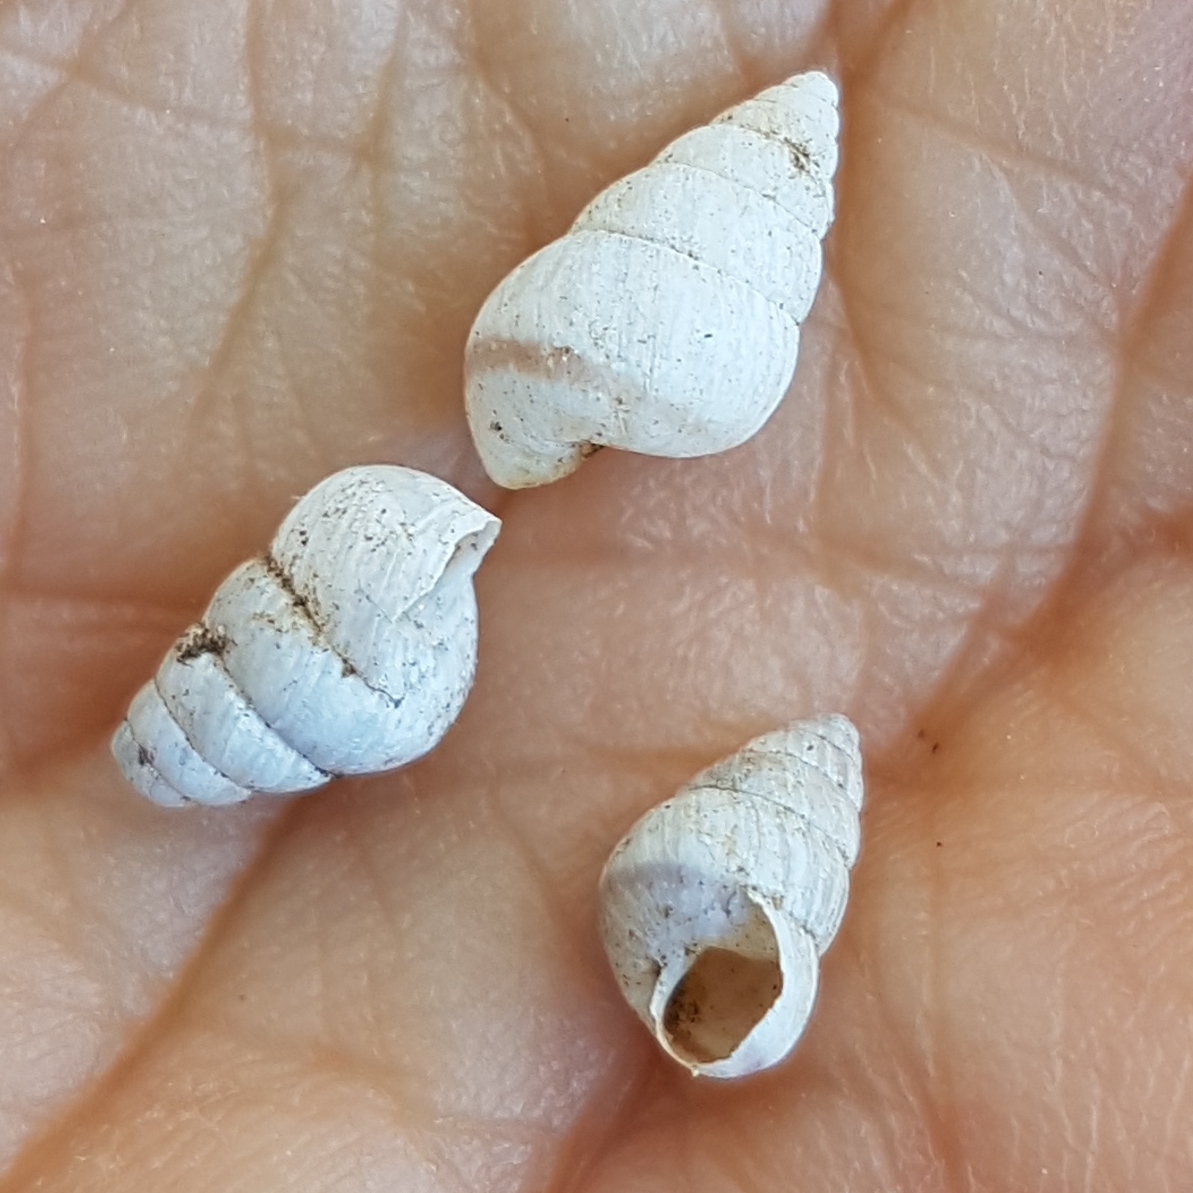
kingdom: Animalia
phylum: Mollusca
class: Gastropoda
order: Stylommatophora
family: Geomitridae
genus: Cochlicella
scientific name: Cochlicella barbara
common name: Potbellied helicellid
